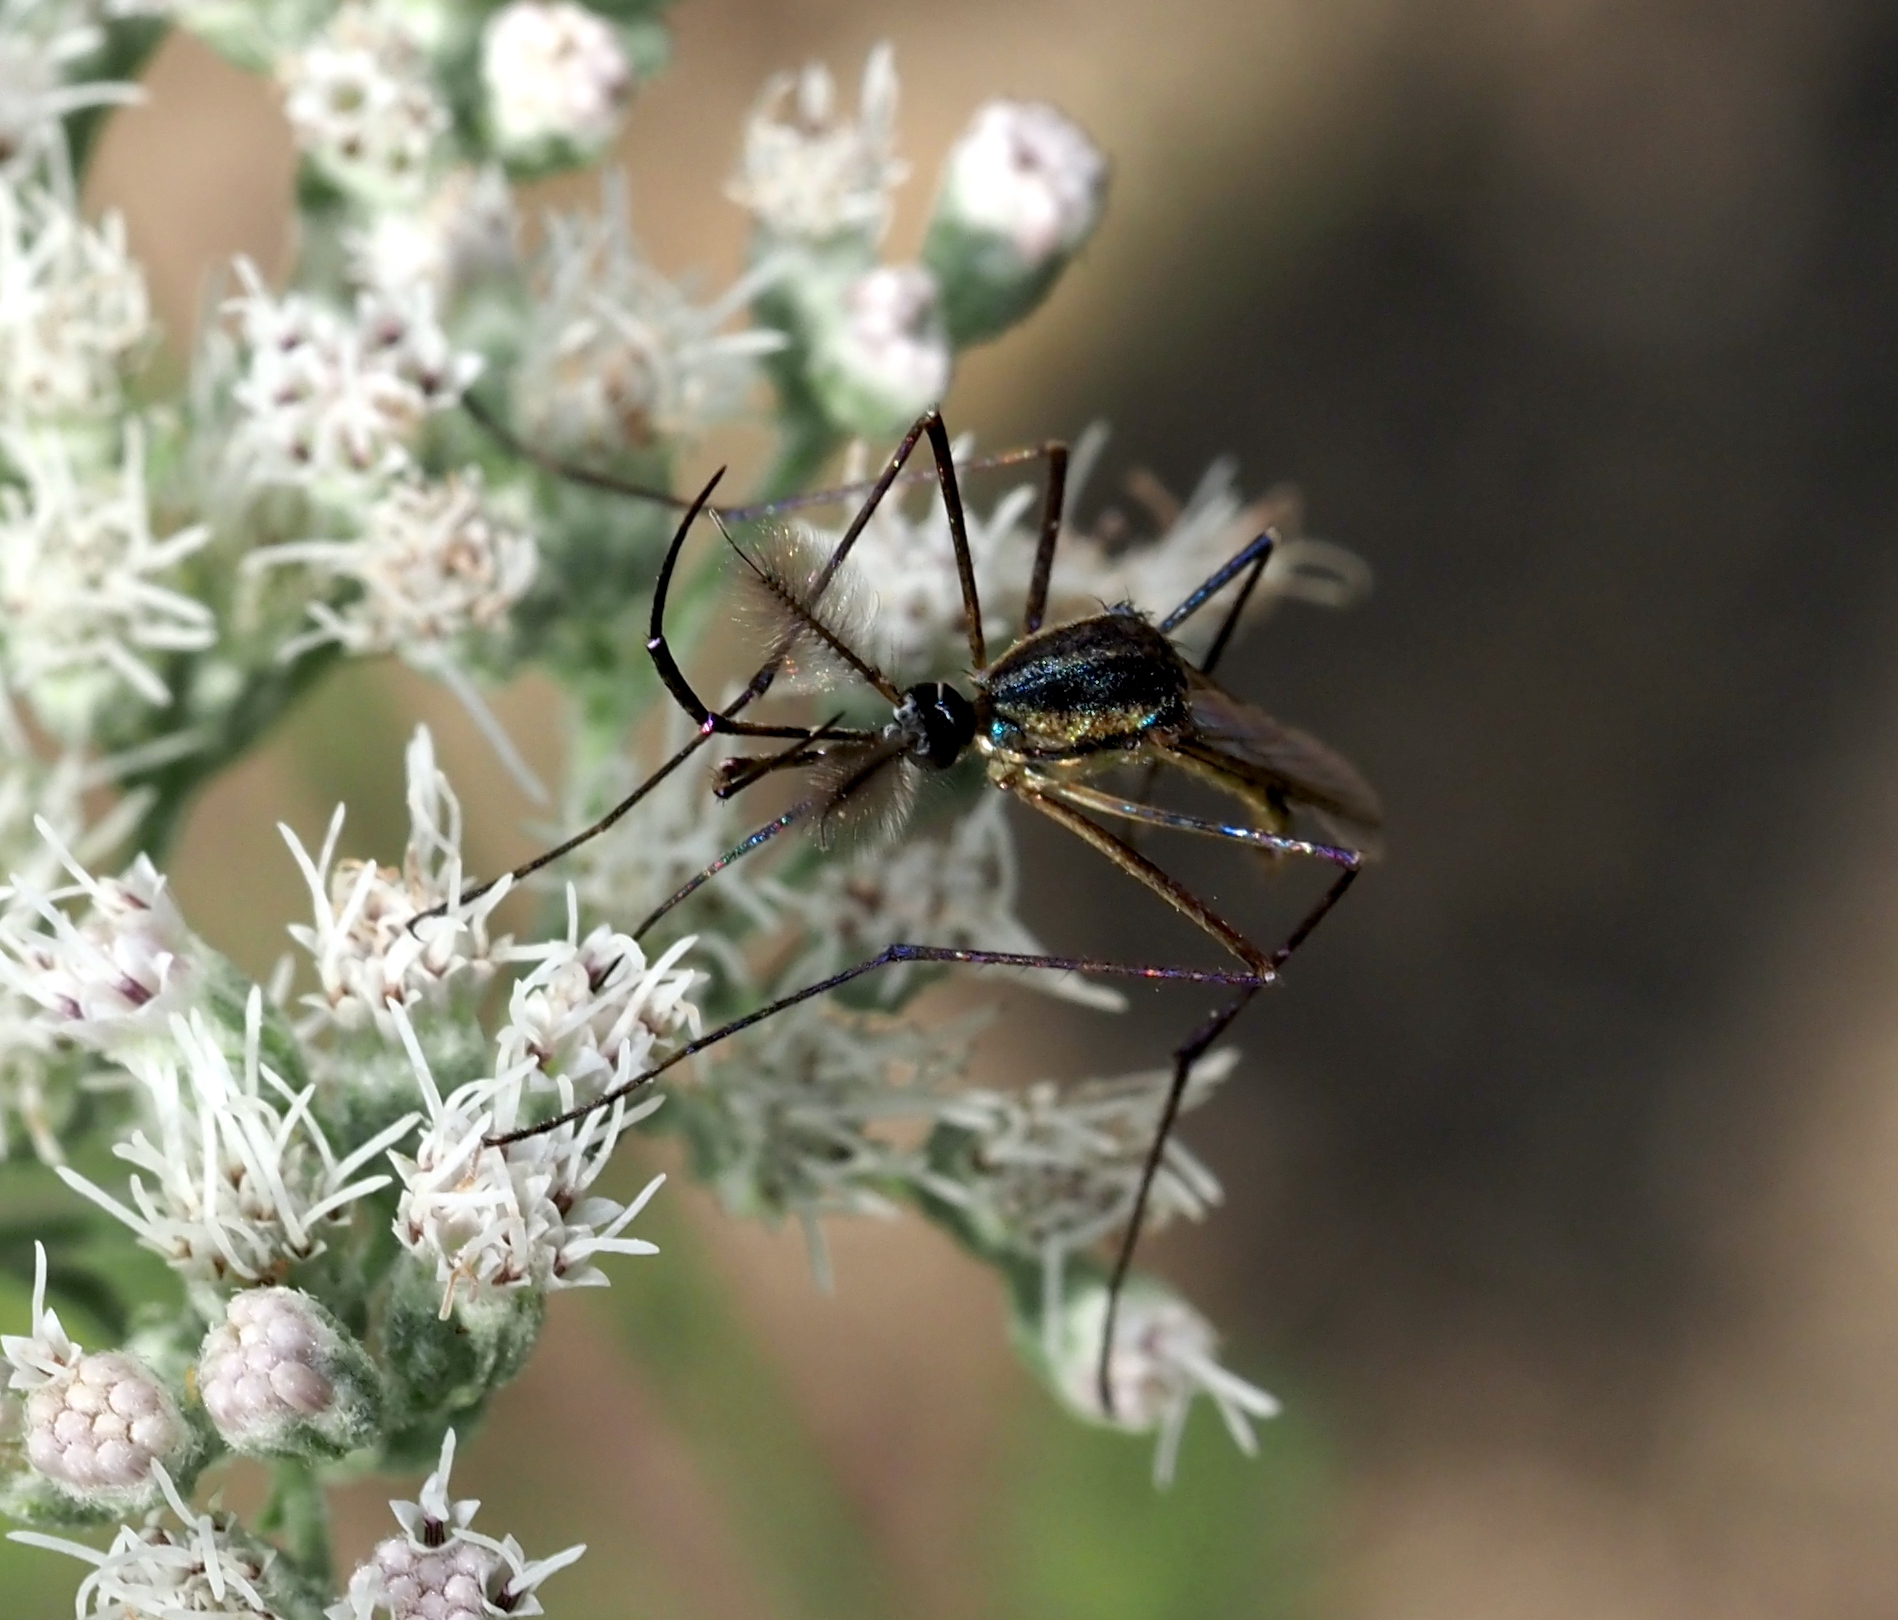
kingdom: Animalia
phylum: Arthropoda
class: Insecta
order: Diptera
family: Culicidae
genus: Toxorhynchites
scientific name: Toxorhynchites rutilus
